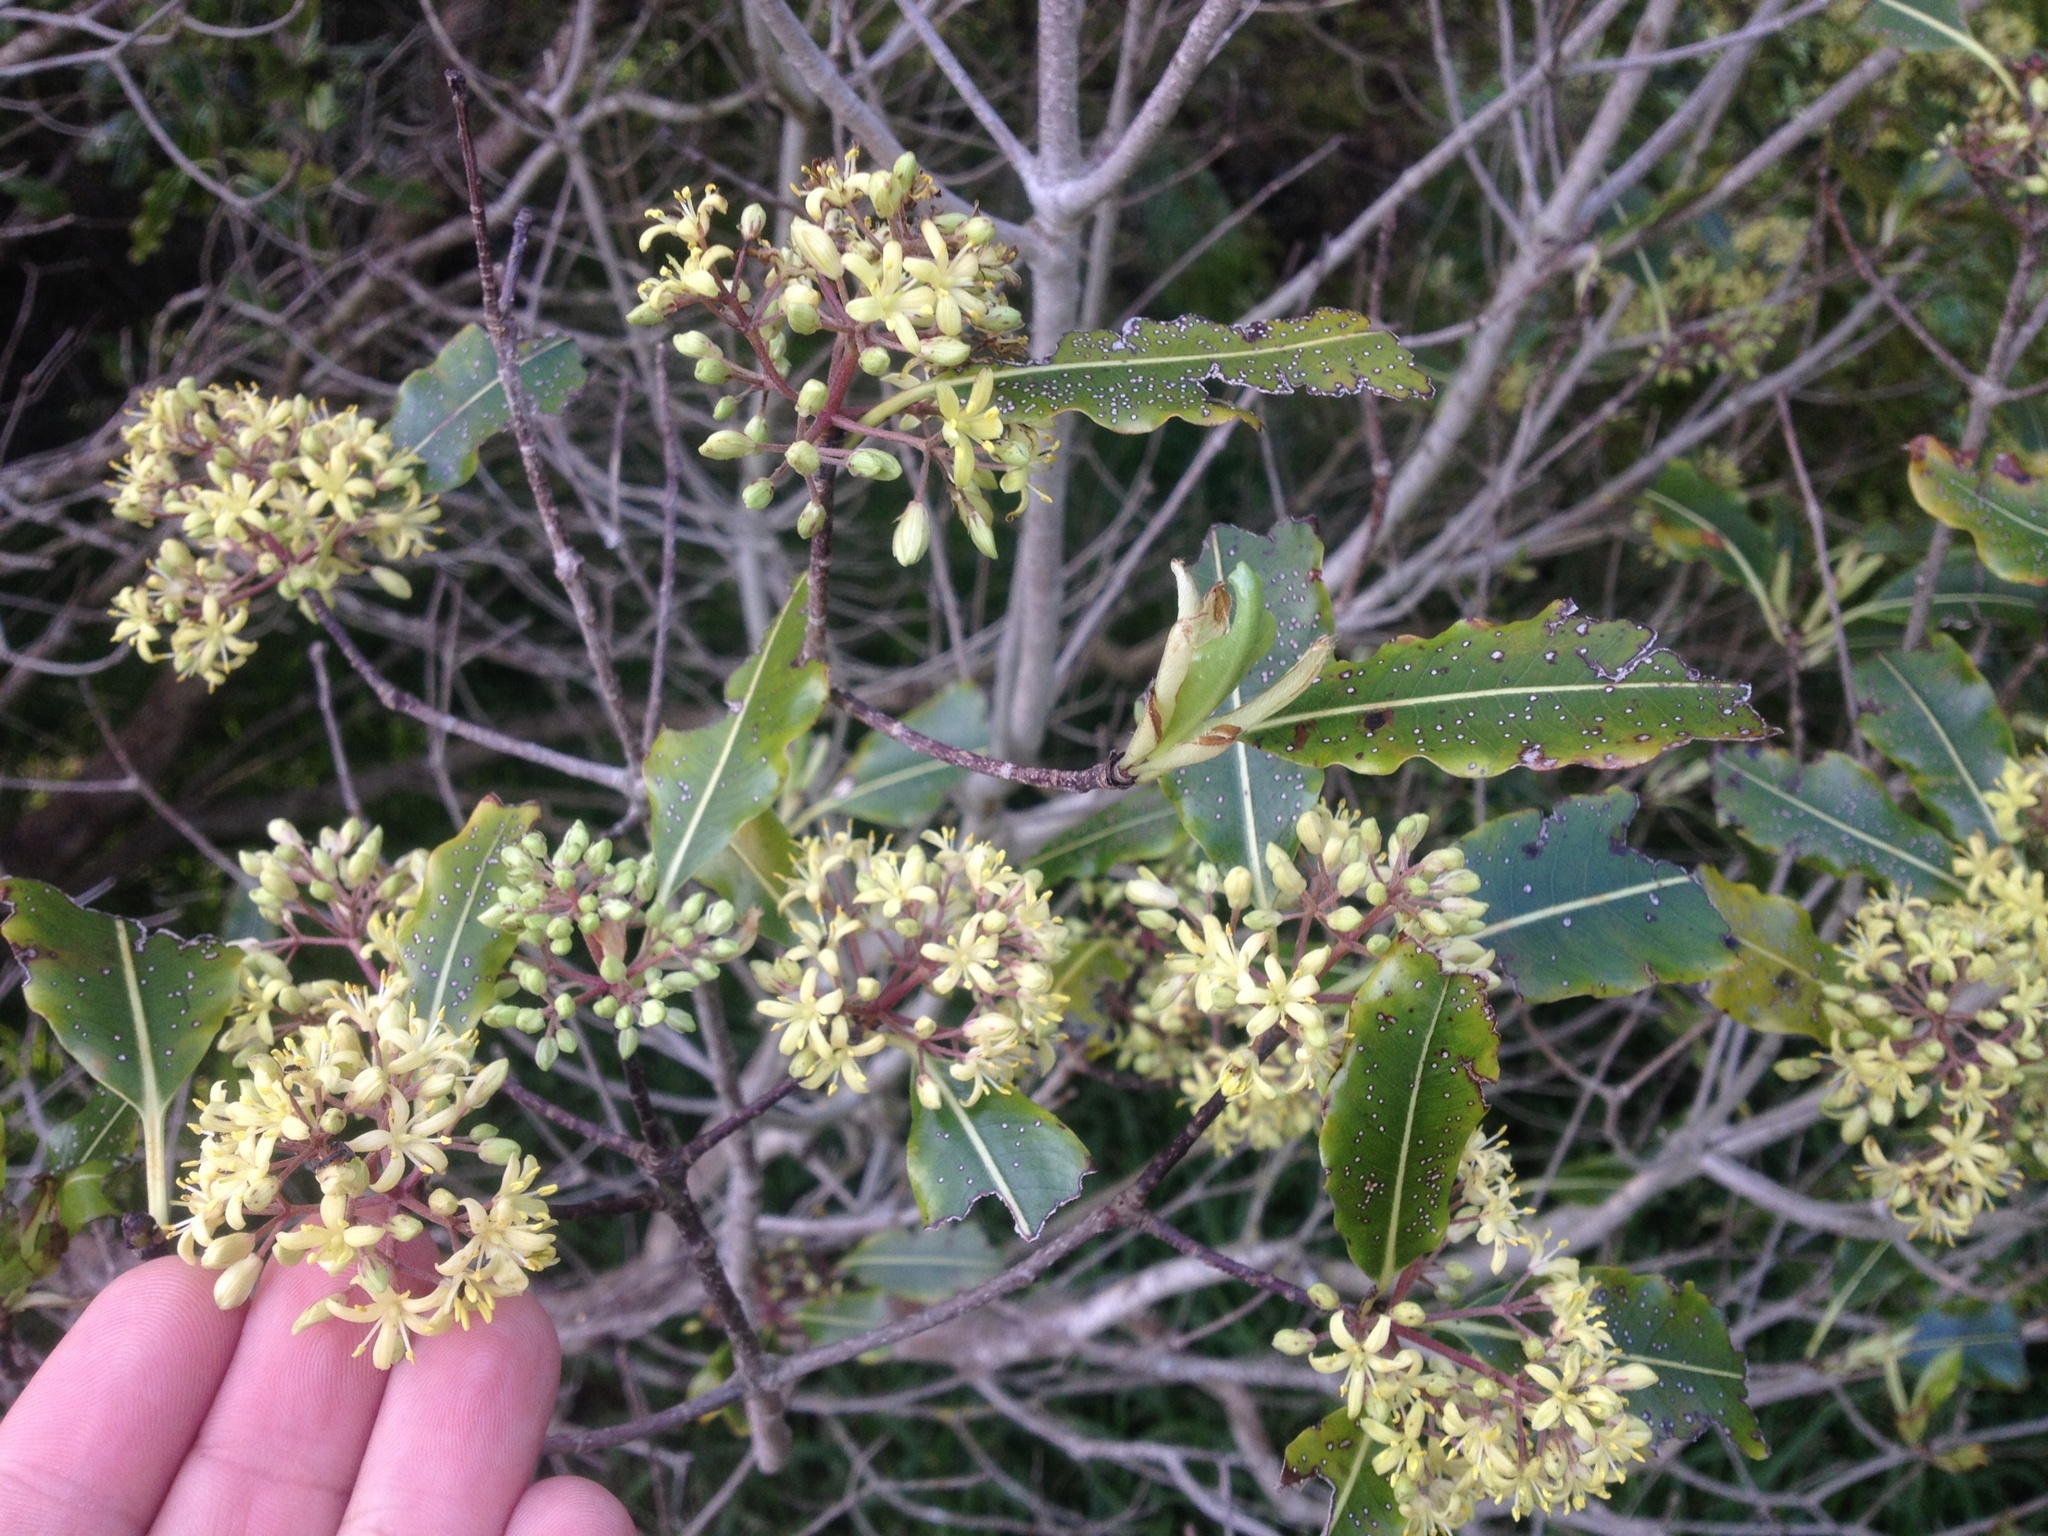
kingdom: Plantae
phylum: Tracheophyta
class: Magnoliopsida
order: Apiales
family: Pittosporaceae
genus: Pittosporum
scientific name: Pittosporum eugenioides
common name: Lemonwood
